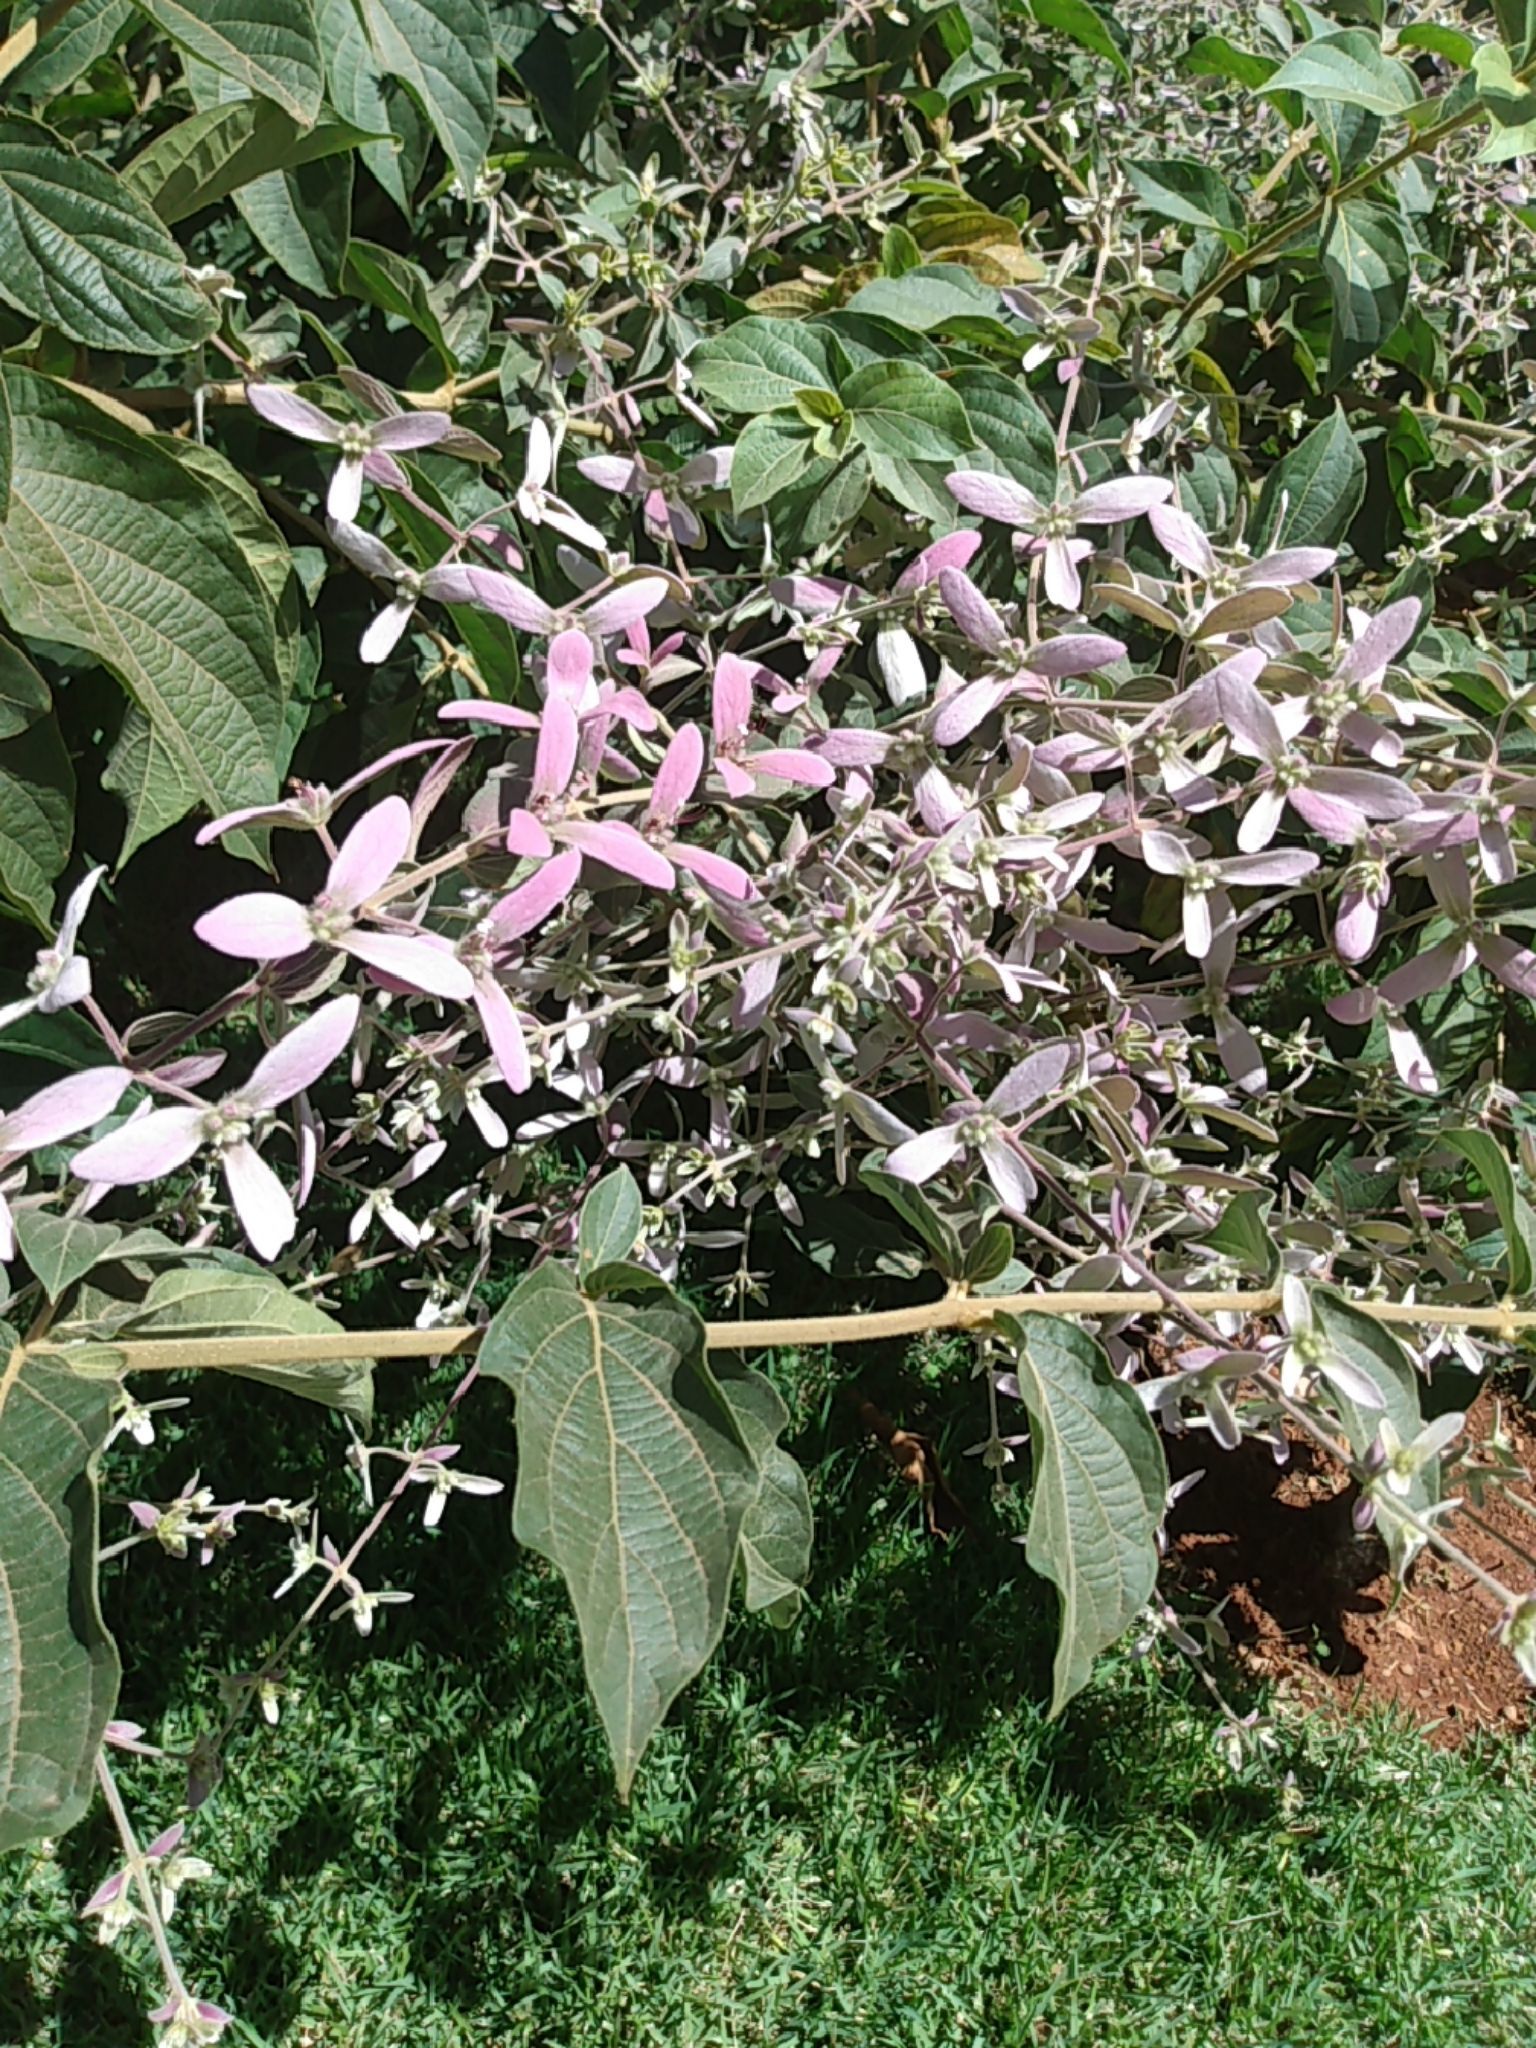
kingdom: Plantae
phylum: Tracheophyta
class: Magnoliopsida
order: Lamiales
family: Verbenaceae
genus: Petrea
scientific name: Petrea volubilis
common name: Queen's-wreath
